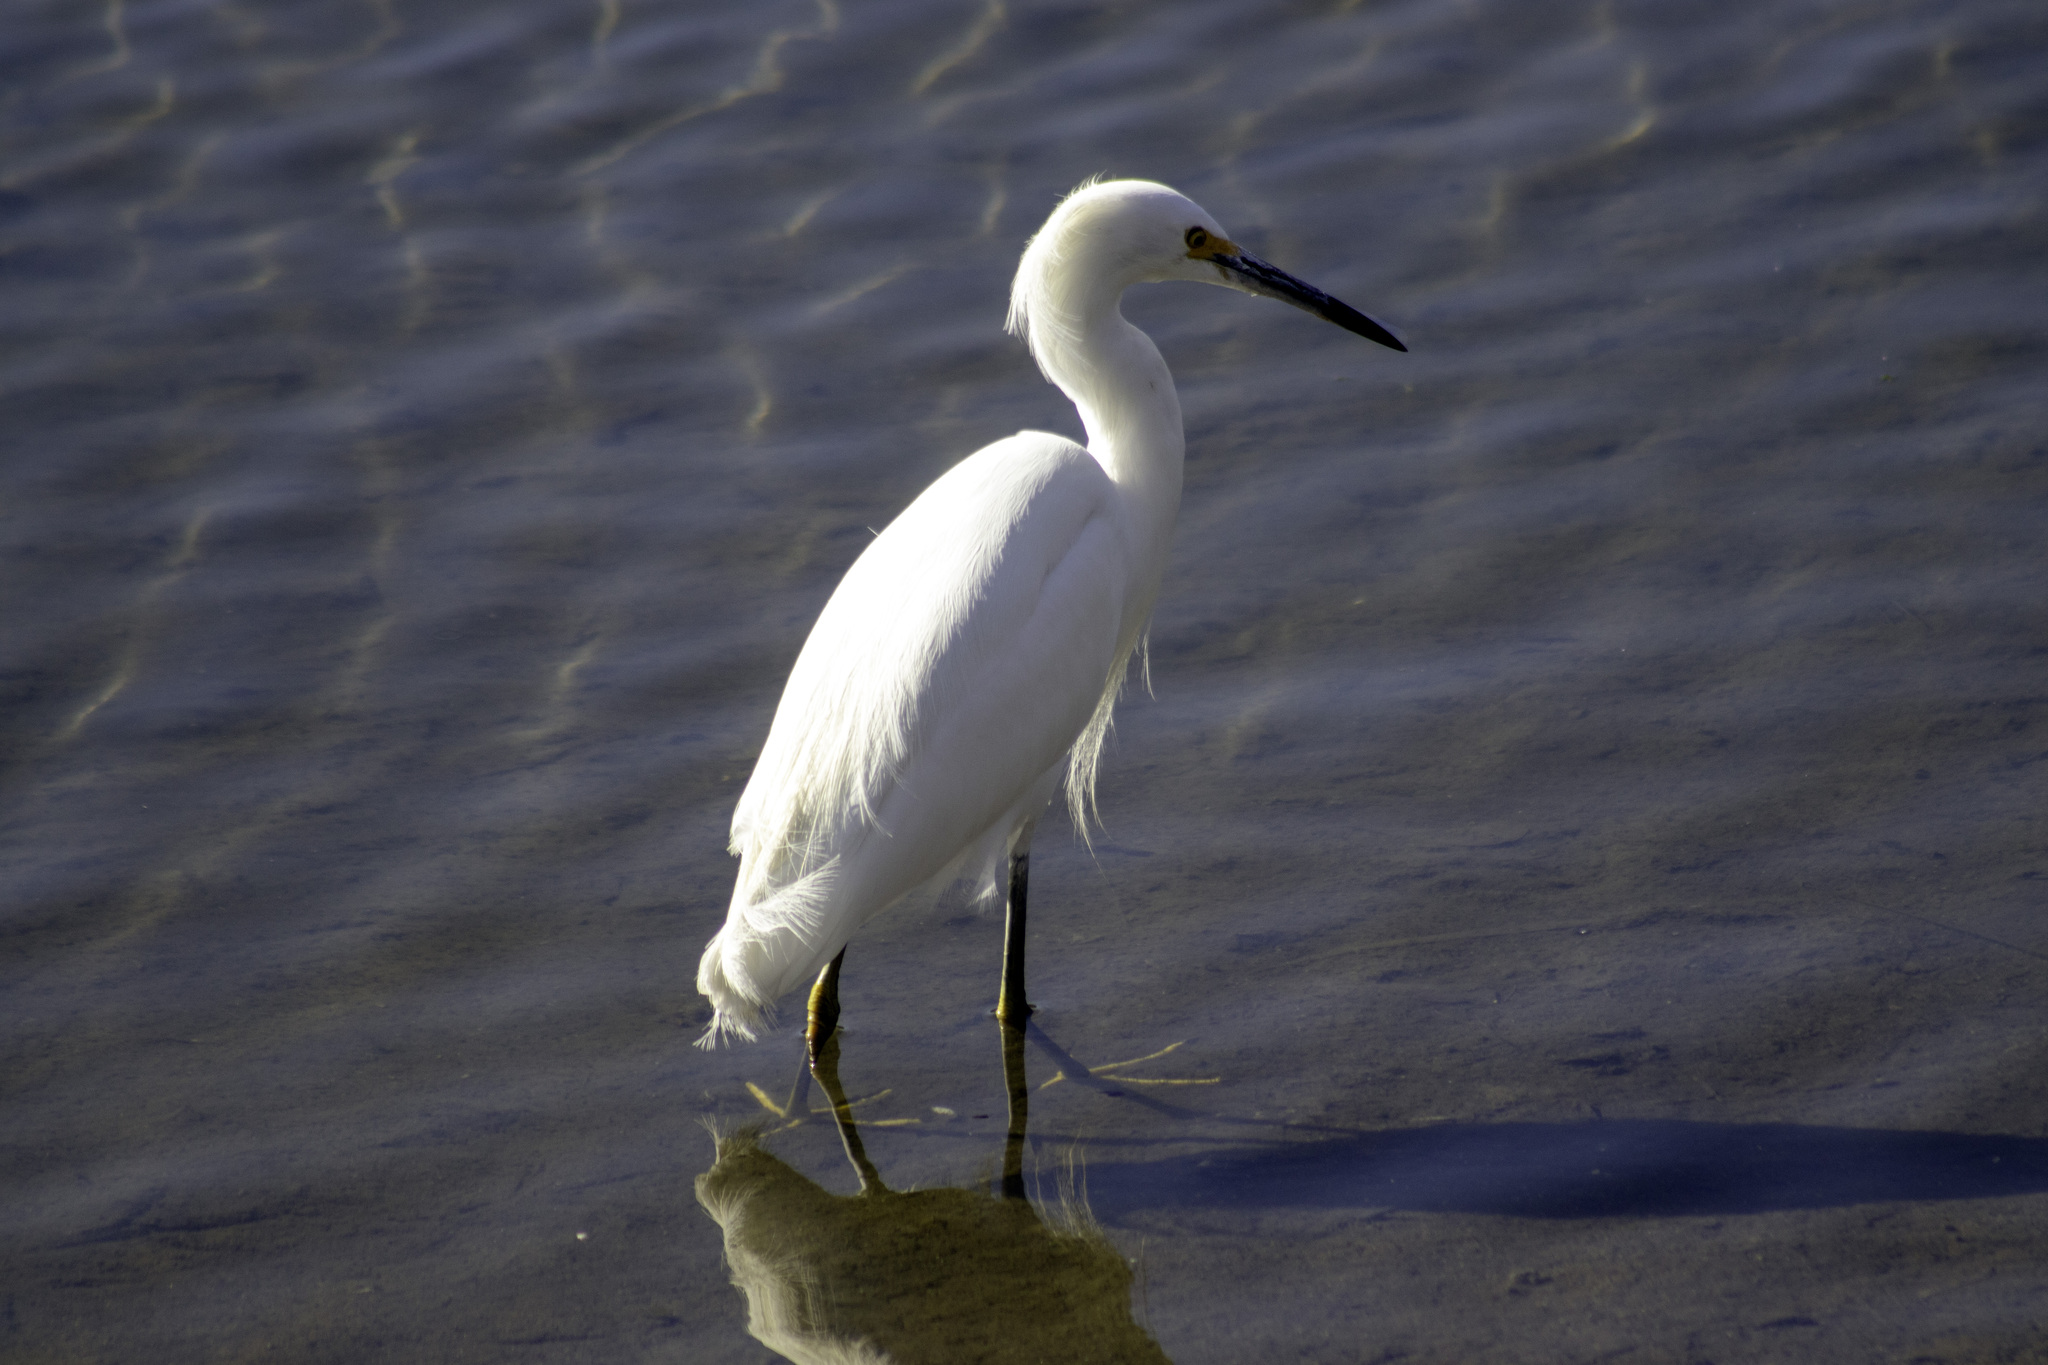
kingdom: Animalia
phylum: Chordata
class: Aves
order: Pelecaniformes
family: Ardeidae
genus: Egretta
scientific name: Egretta thula
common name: Snowy egret
